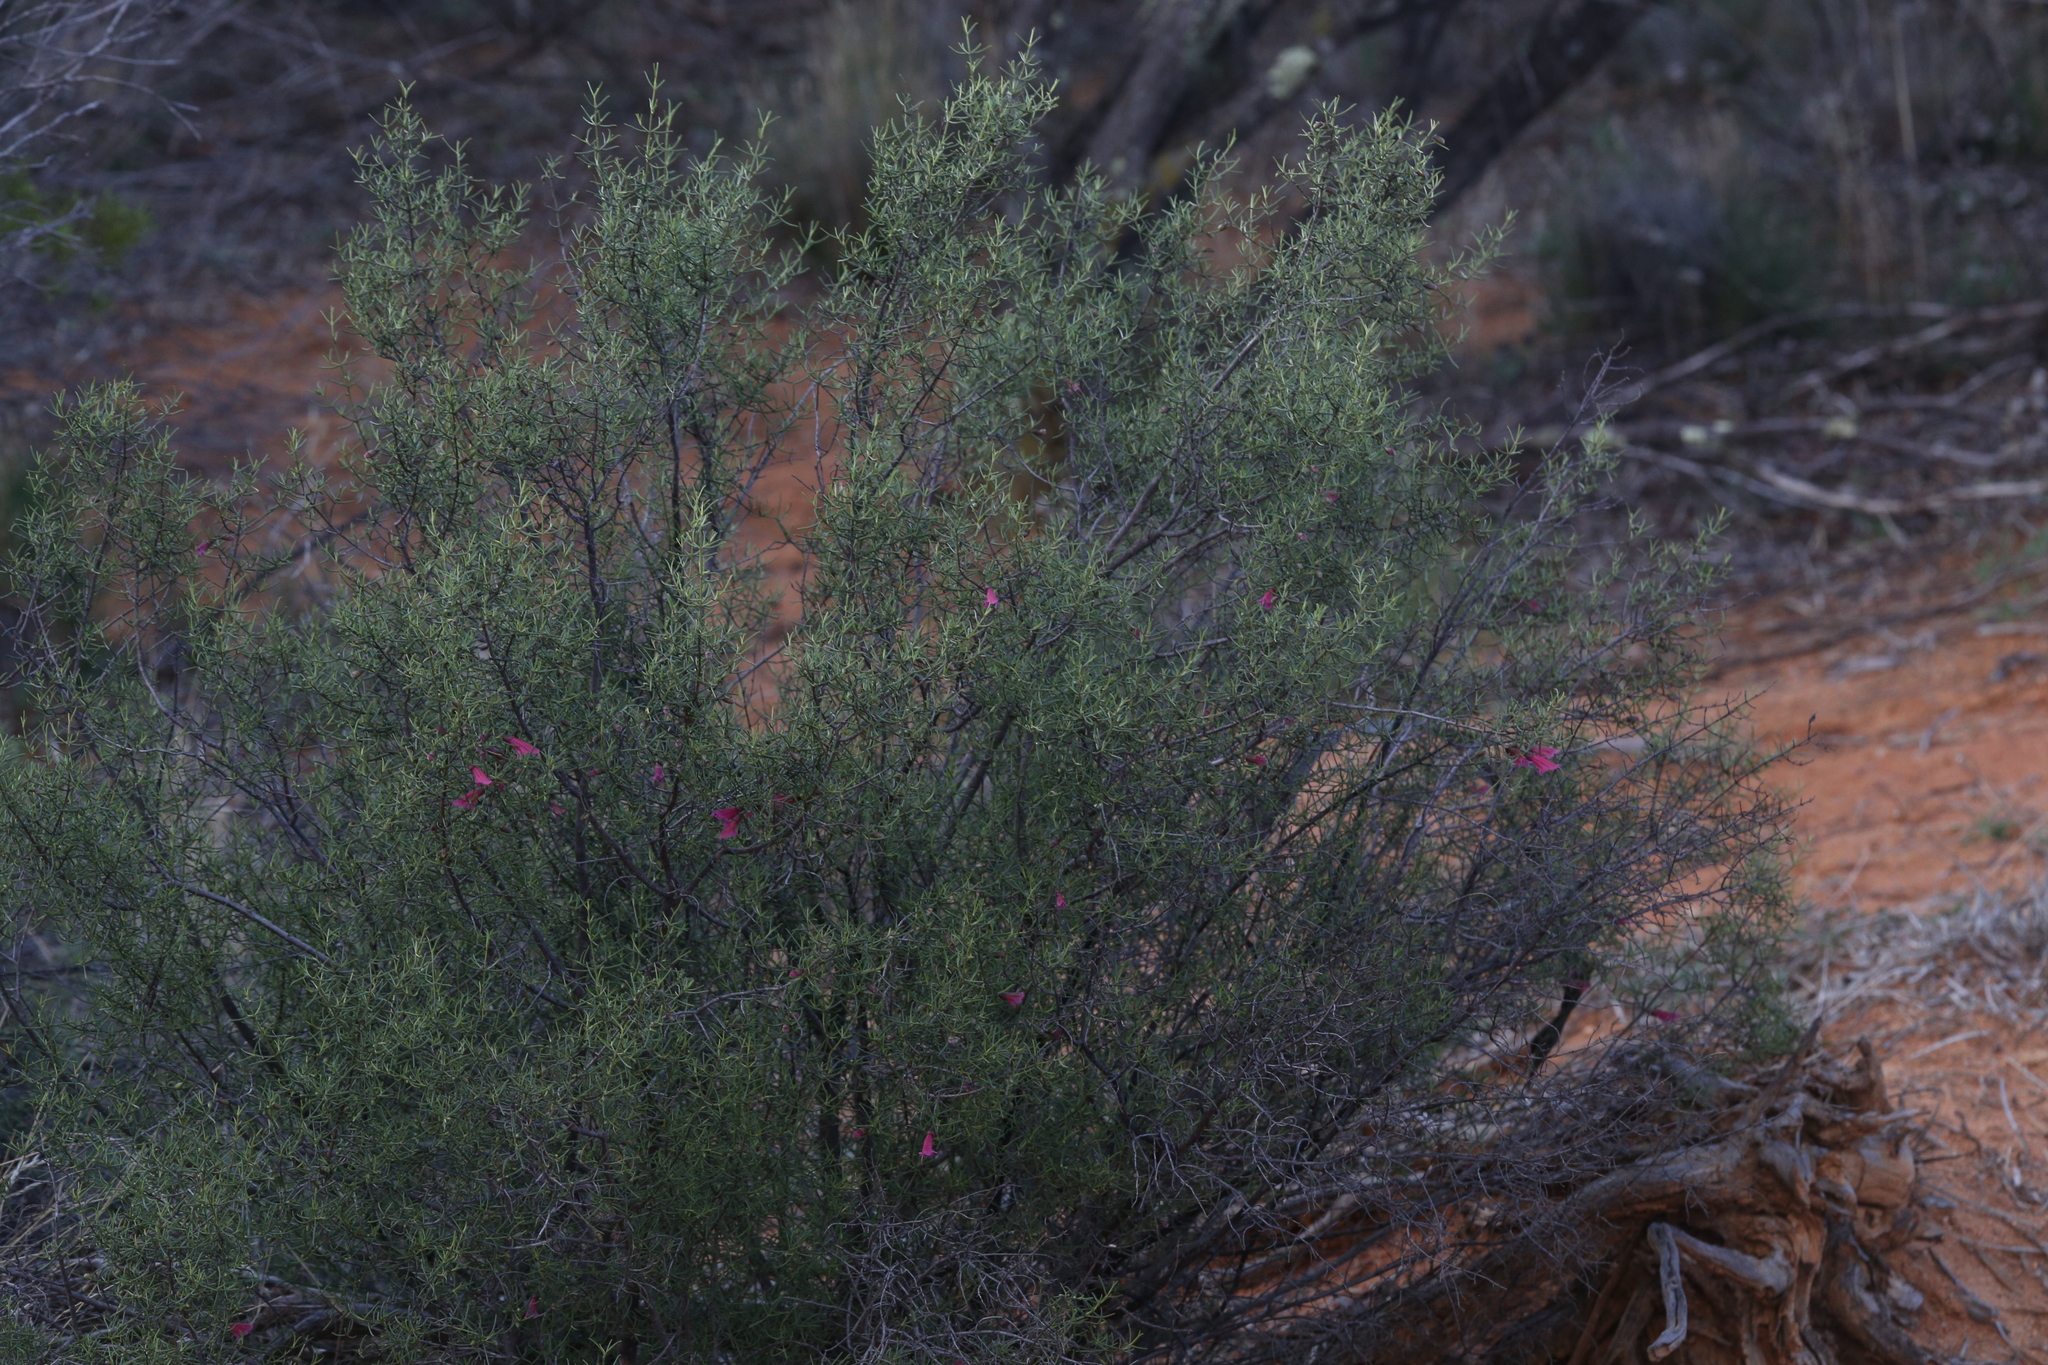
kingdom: Plantae
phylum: Tracheophyta
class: Magnoliopsida
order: Lamiales
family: Lamiaceae
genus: Prostanthera
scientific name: Prostanthera semiteres
